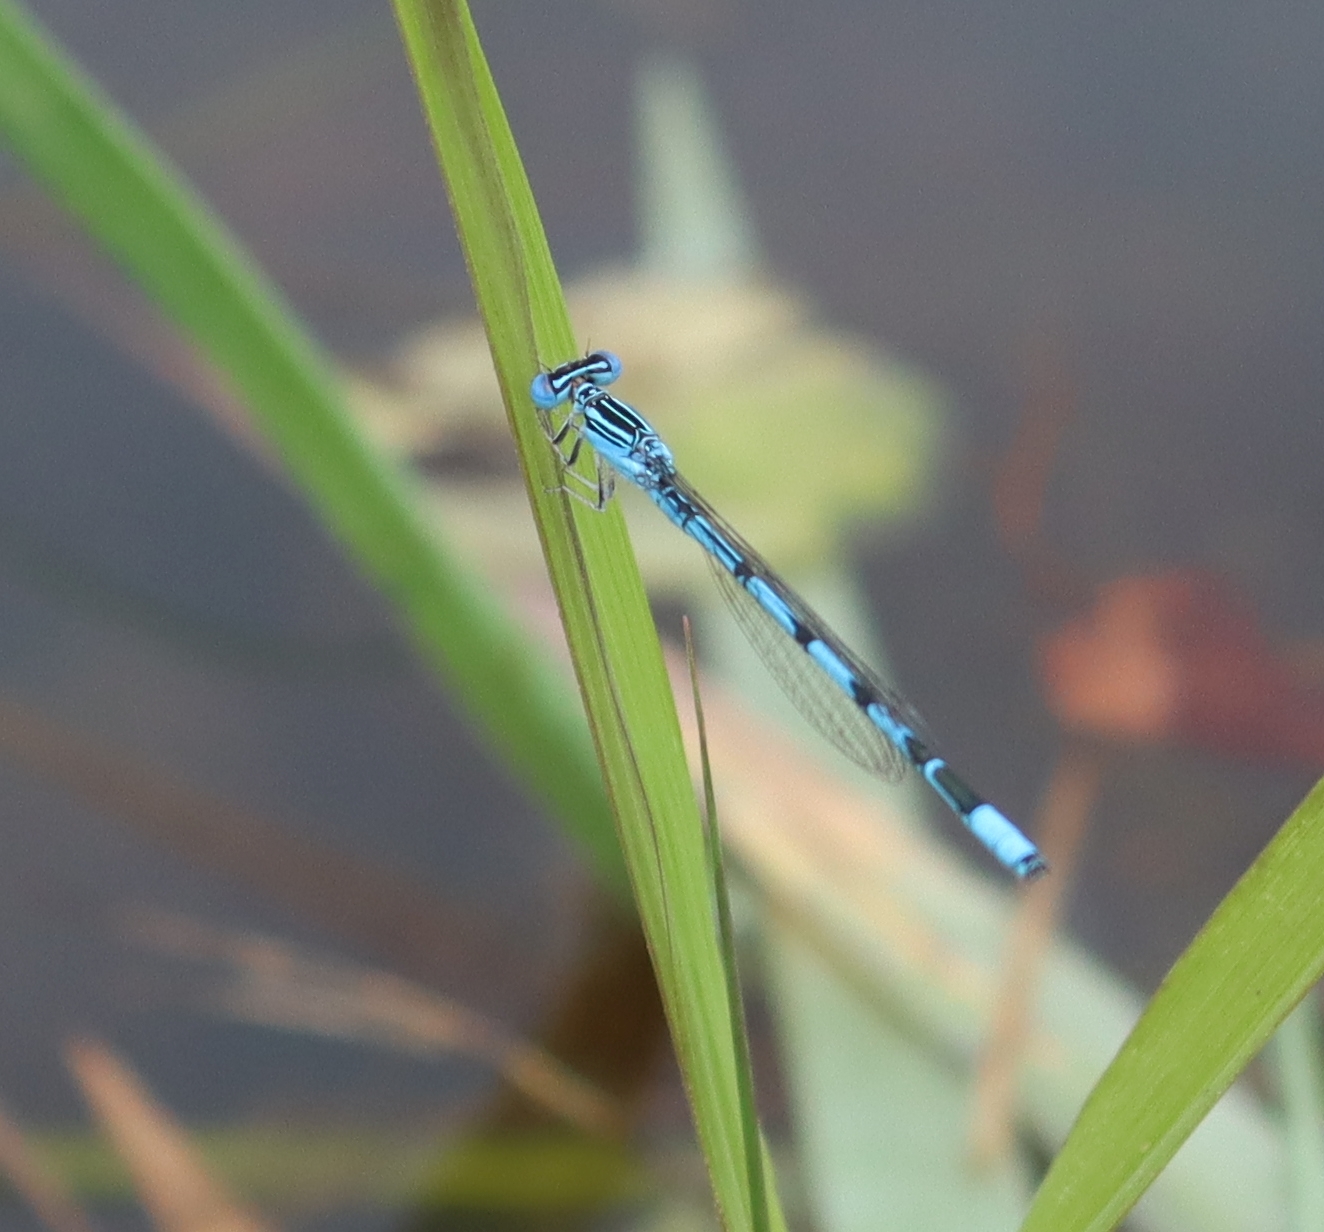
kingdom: Animalia
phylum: Arthropoda
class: Insecta
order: Odonata
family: Coenagrionidae
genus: Enallagma
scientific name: Enallagma basidens
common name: Double-striped bluet
